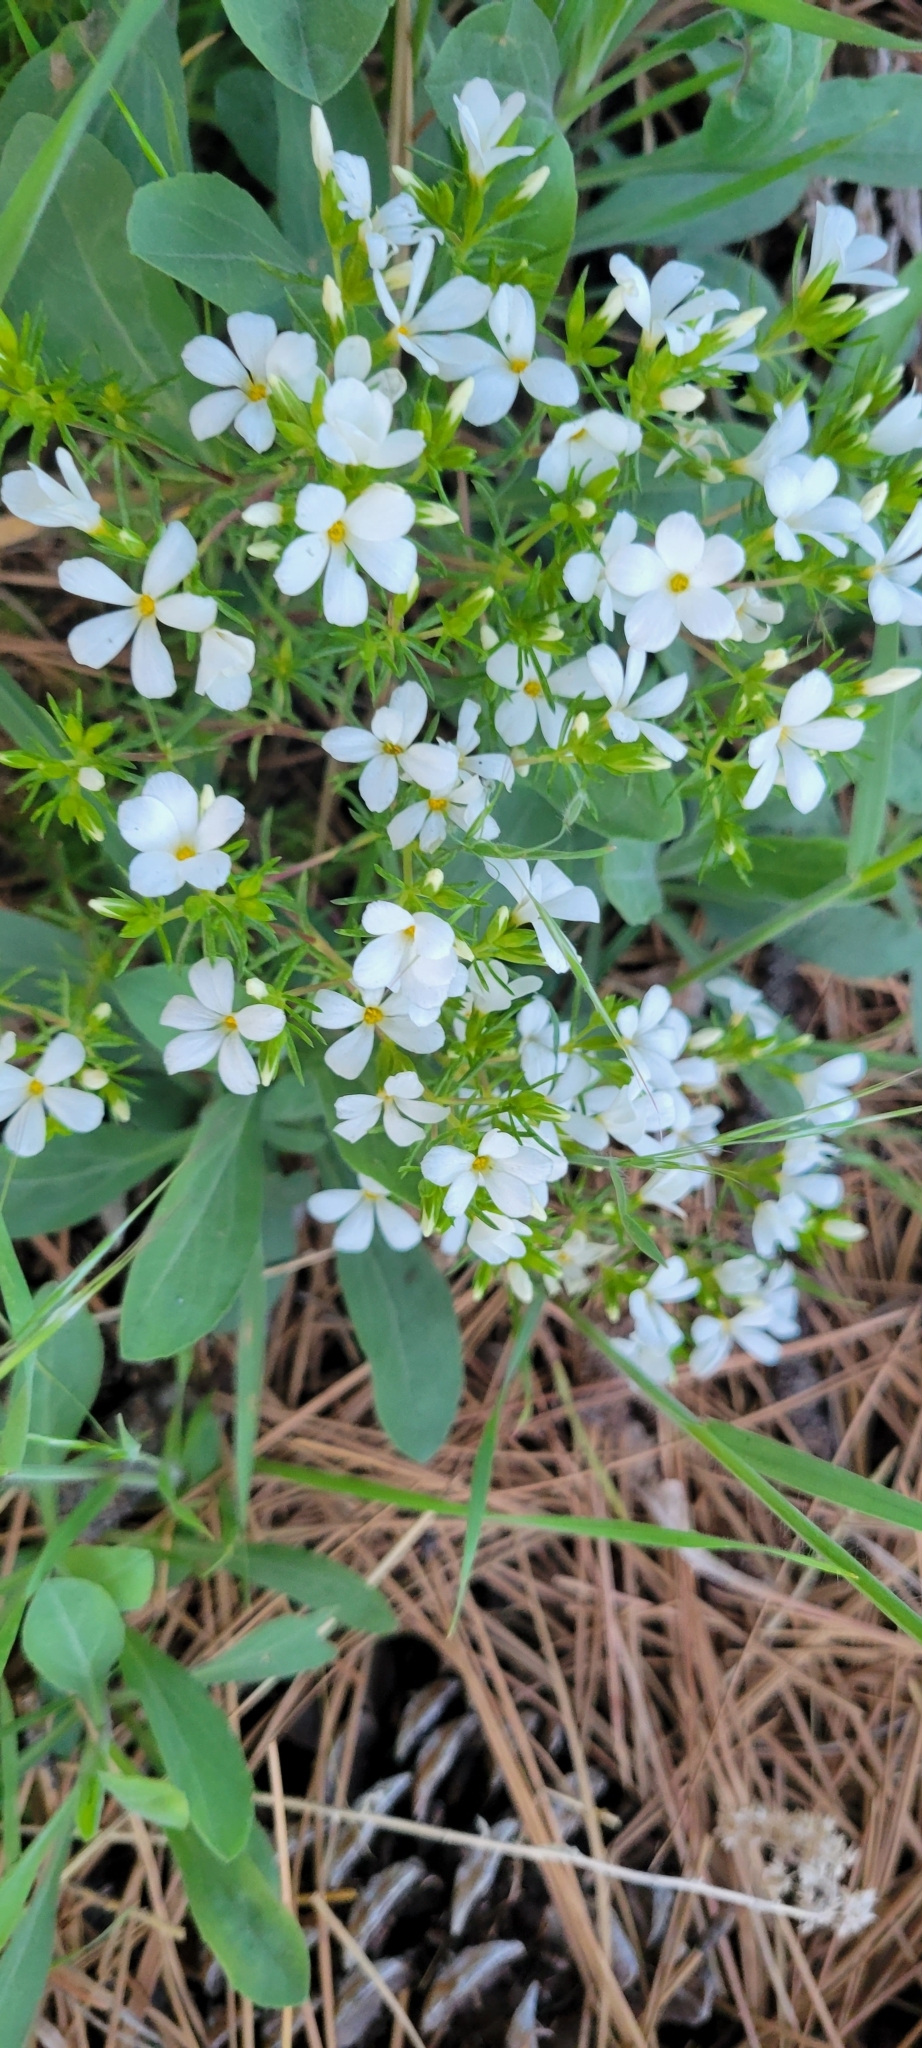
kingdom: Plantae
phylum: Tracheophyta
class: Magnoliopsida
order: Ericales
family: Polemoniaceae
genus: Leptosiphon
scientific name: Leptosiphon floribundum
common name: Many-flower linanthus
